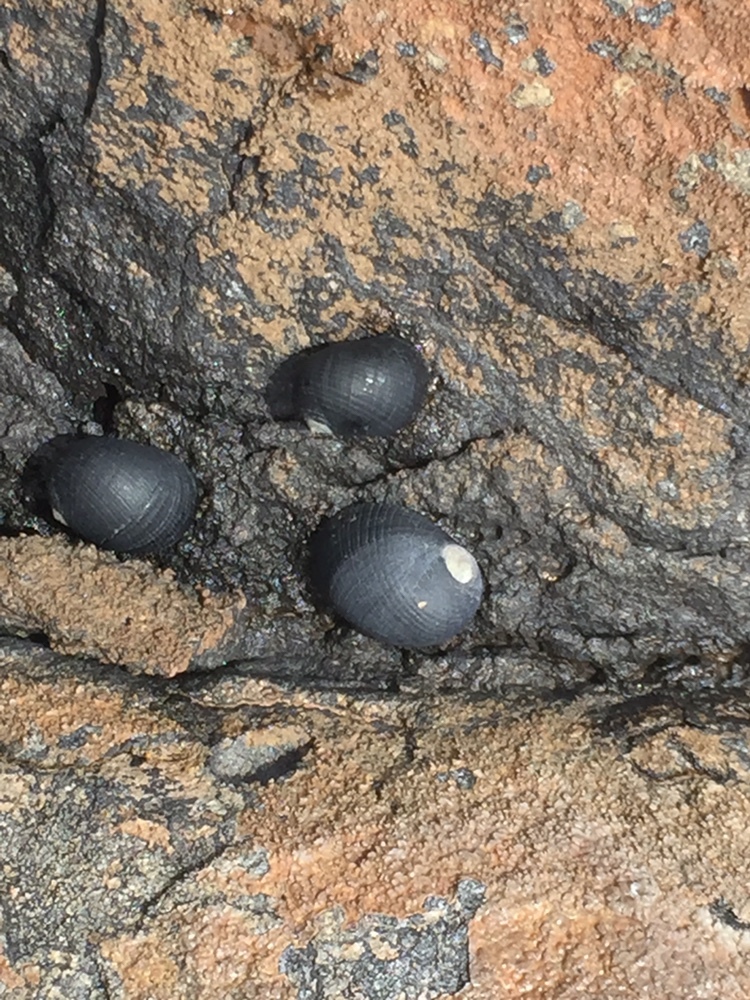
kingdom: Animalia
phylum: Mollusca
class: Gastropoda
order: Cycloneritida
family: Neritidae
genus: Nerita
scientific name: Nerita picea
